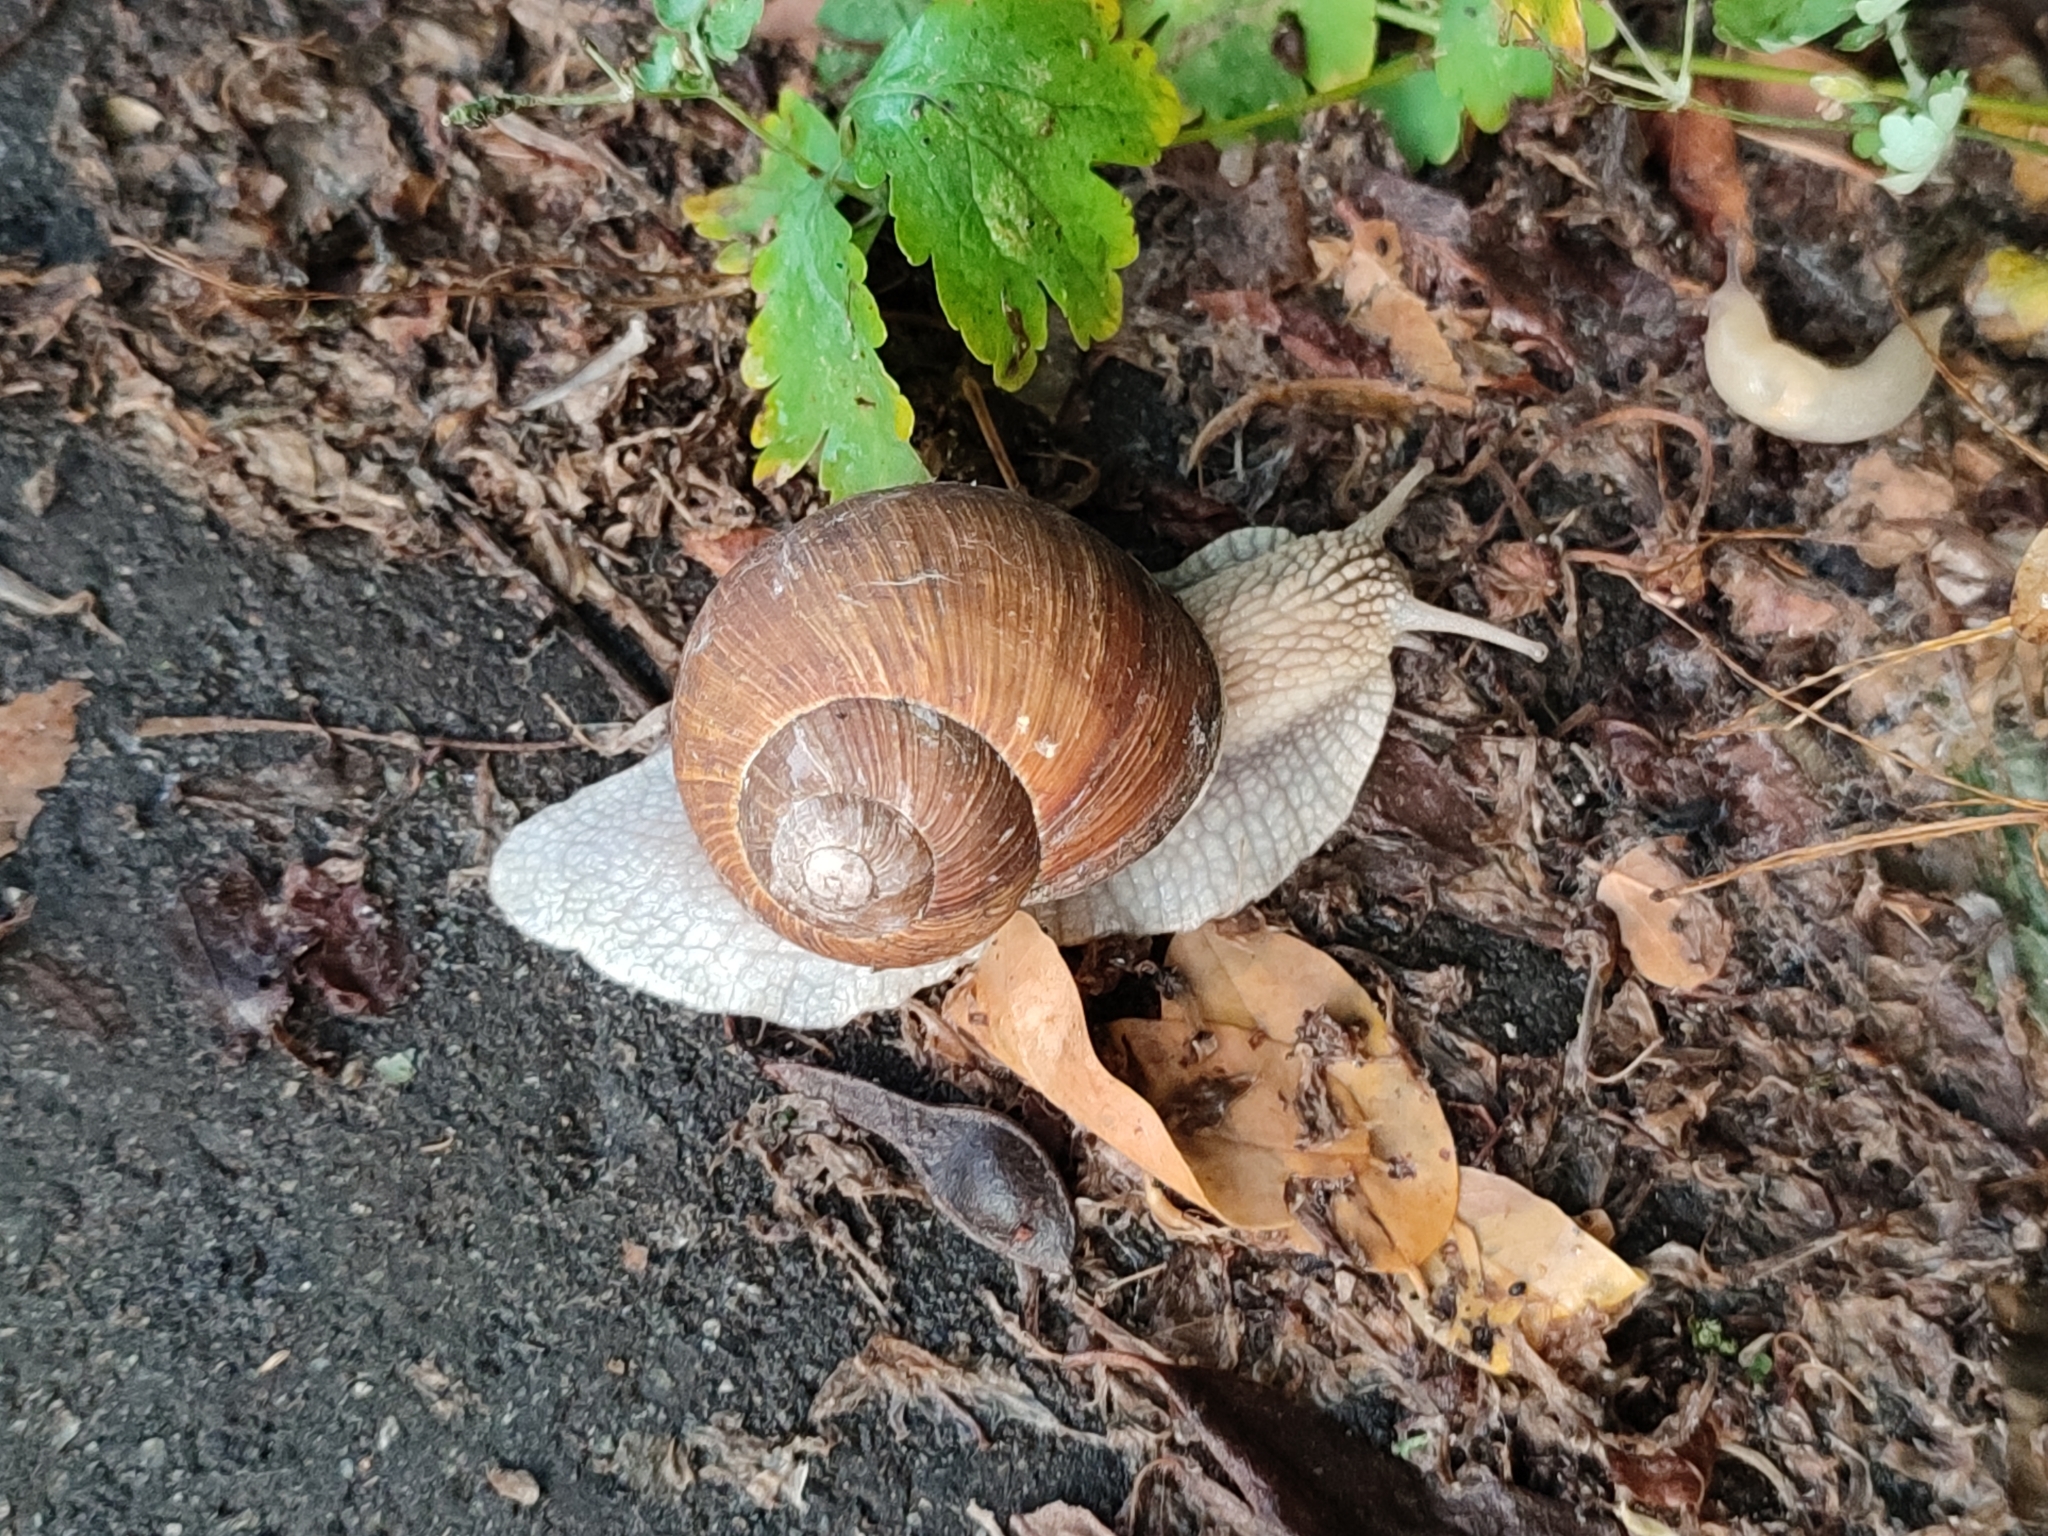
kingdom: Animalia
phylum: Mollusca
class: Gastropoda
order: Stylommatophora
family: Helicidae
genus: Helix
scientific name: Helix pomatia
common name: Roman snail
